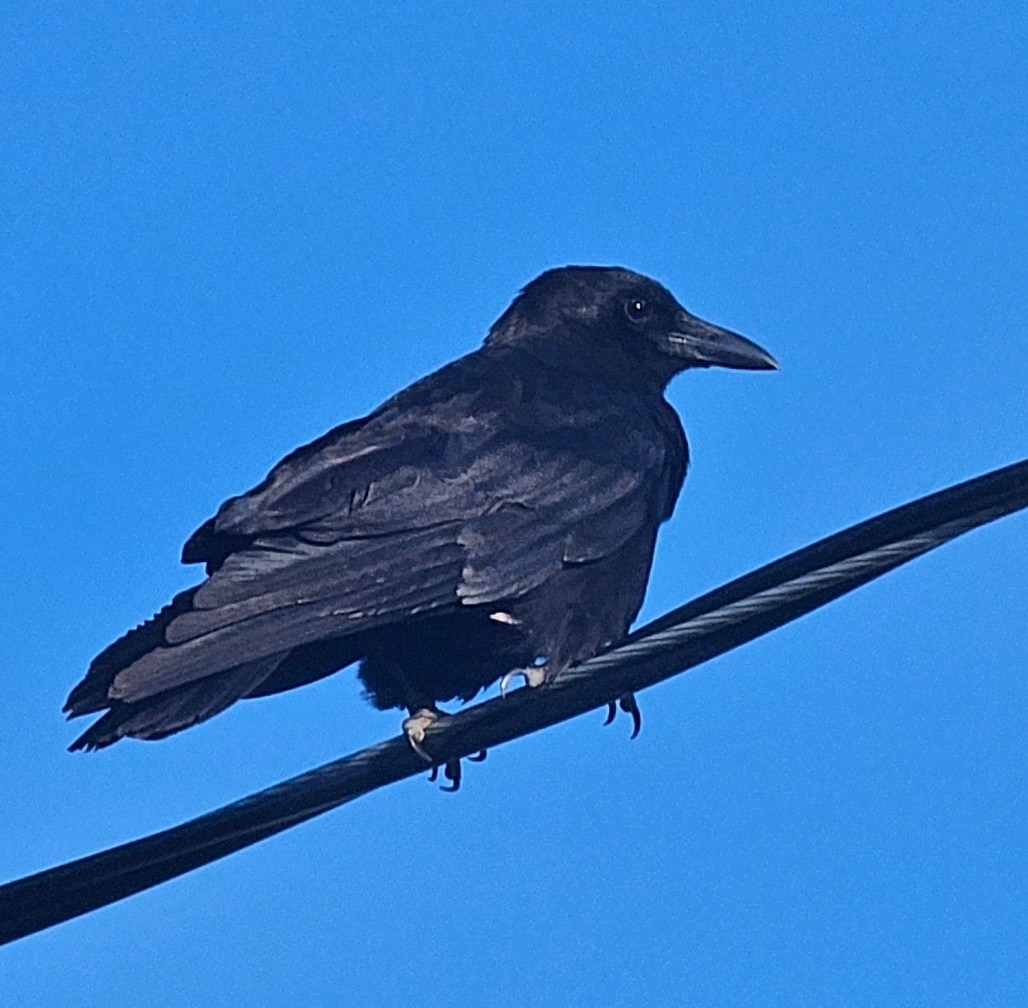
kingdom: Animalia
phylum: Chordata
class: Aves
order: Passeriformes
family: Corvidae
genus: Corvus
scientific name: Corvus brachyrhynchos
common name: American crow
